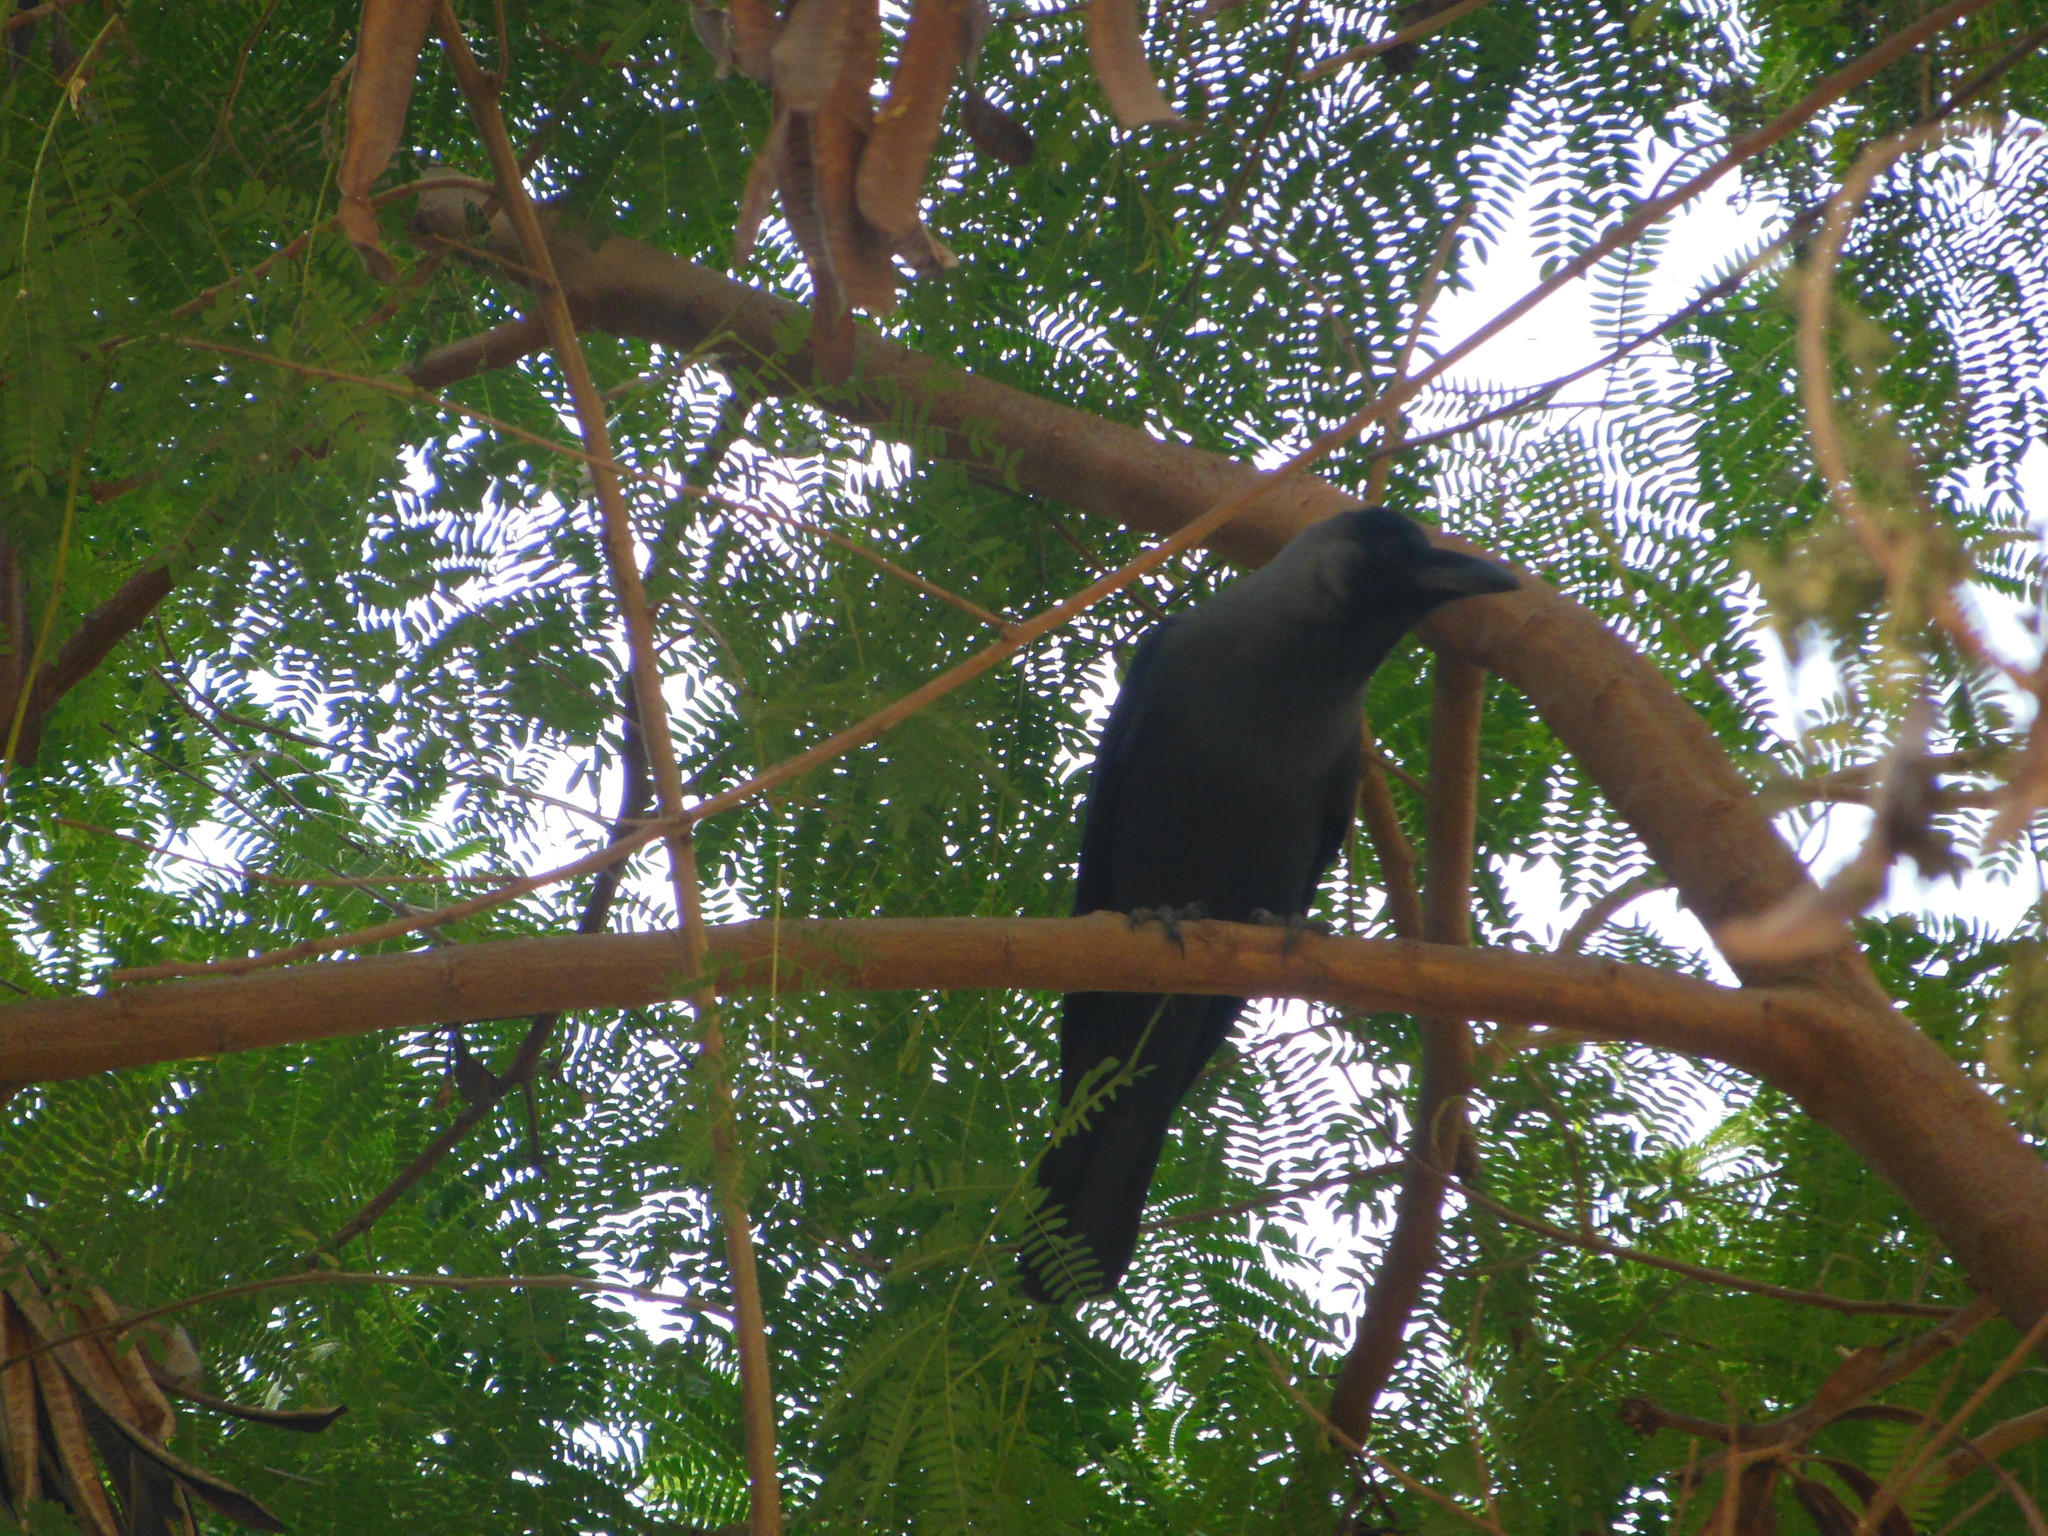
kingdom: Animalia
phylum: Chordata
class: Aves
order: Passeriformes
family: Corvidae
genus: Corvus
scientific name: Corvus splendens
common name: House crow
